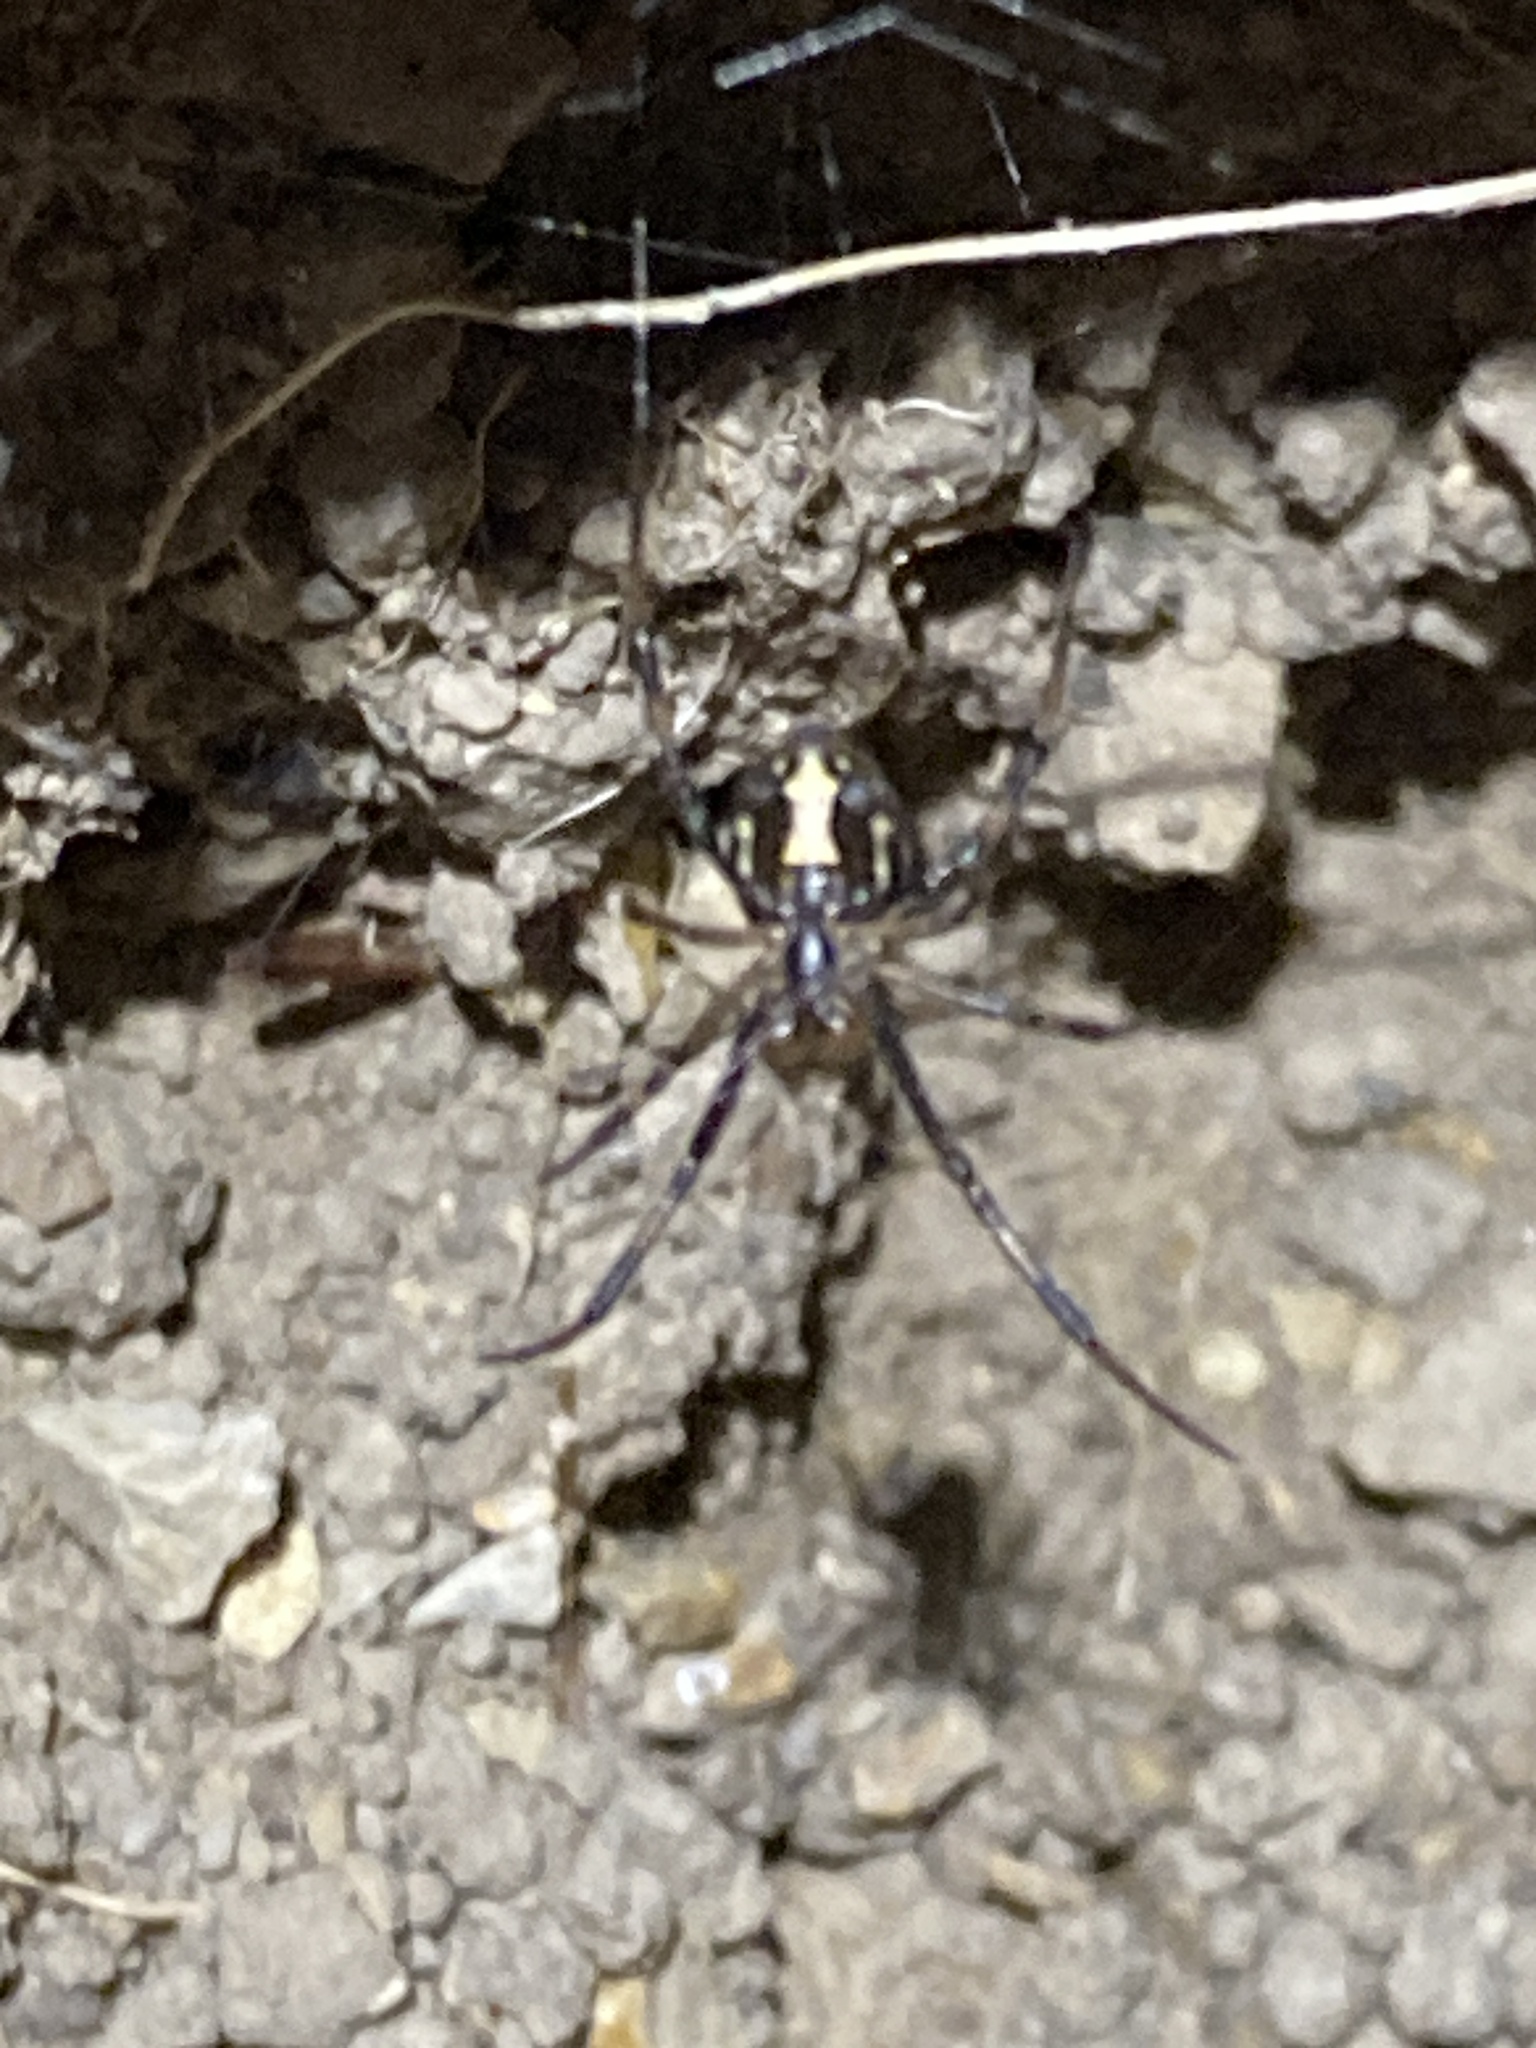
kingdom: Animalia
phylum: Arthropoda
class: Arachnida
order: Araneae
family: Theridiidae
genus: Latrodectus
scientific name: Latrodectus hesperus
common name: Western black widow
